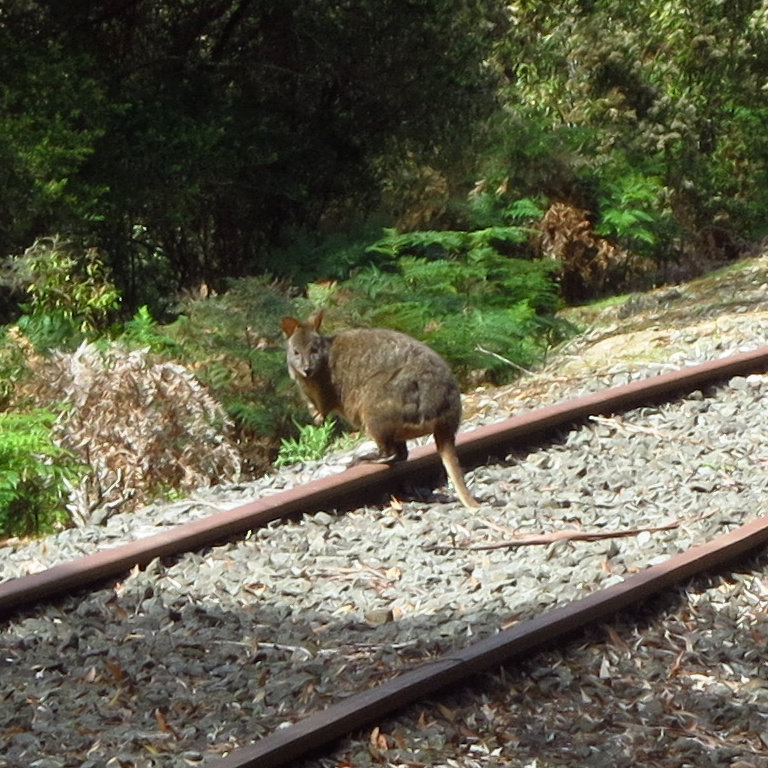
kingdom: Animalia
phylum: Chordata
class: Mammalia
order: Diprotodontia
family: Macropodidae
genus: Thylogale
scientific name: Thylogale billardierii
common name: Tasmanian pademelon
